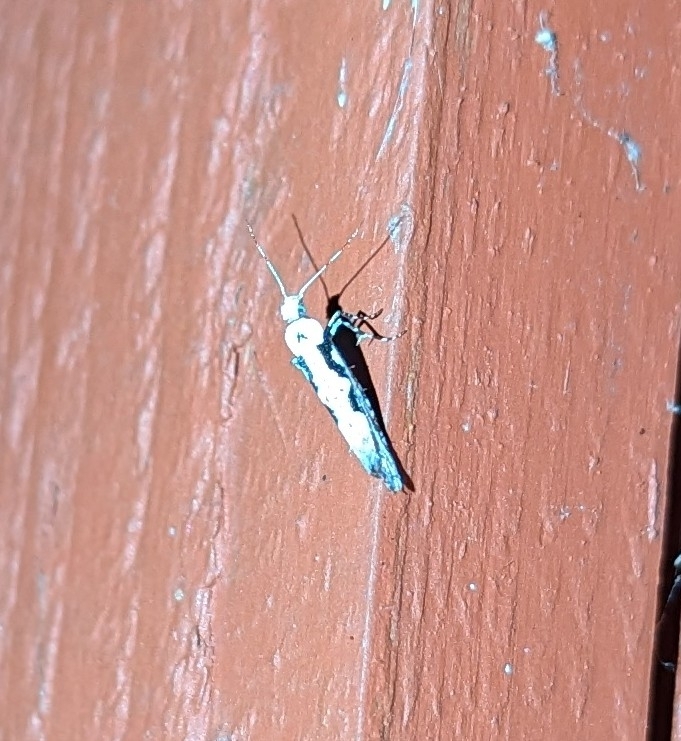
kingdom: Animalia
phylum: Arthropoda
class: Insecta
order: Lepidoptera
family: Plutellidae
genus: Rhigognostis
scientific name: Rhigognostis interrupta
